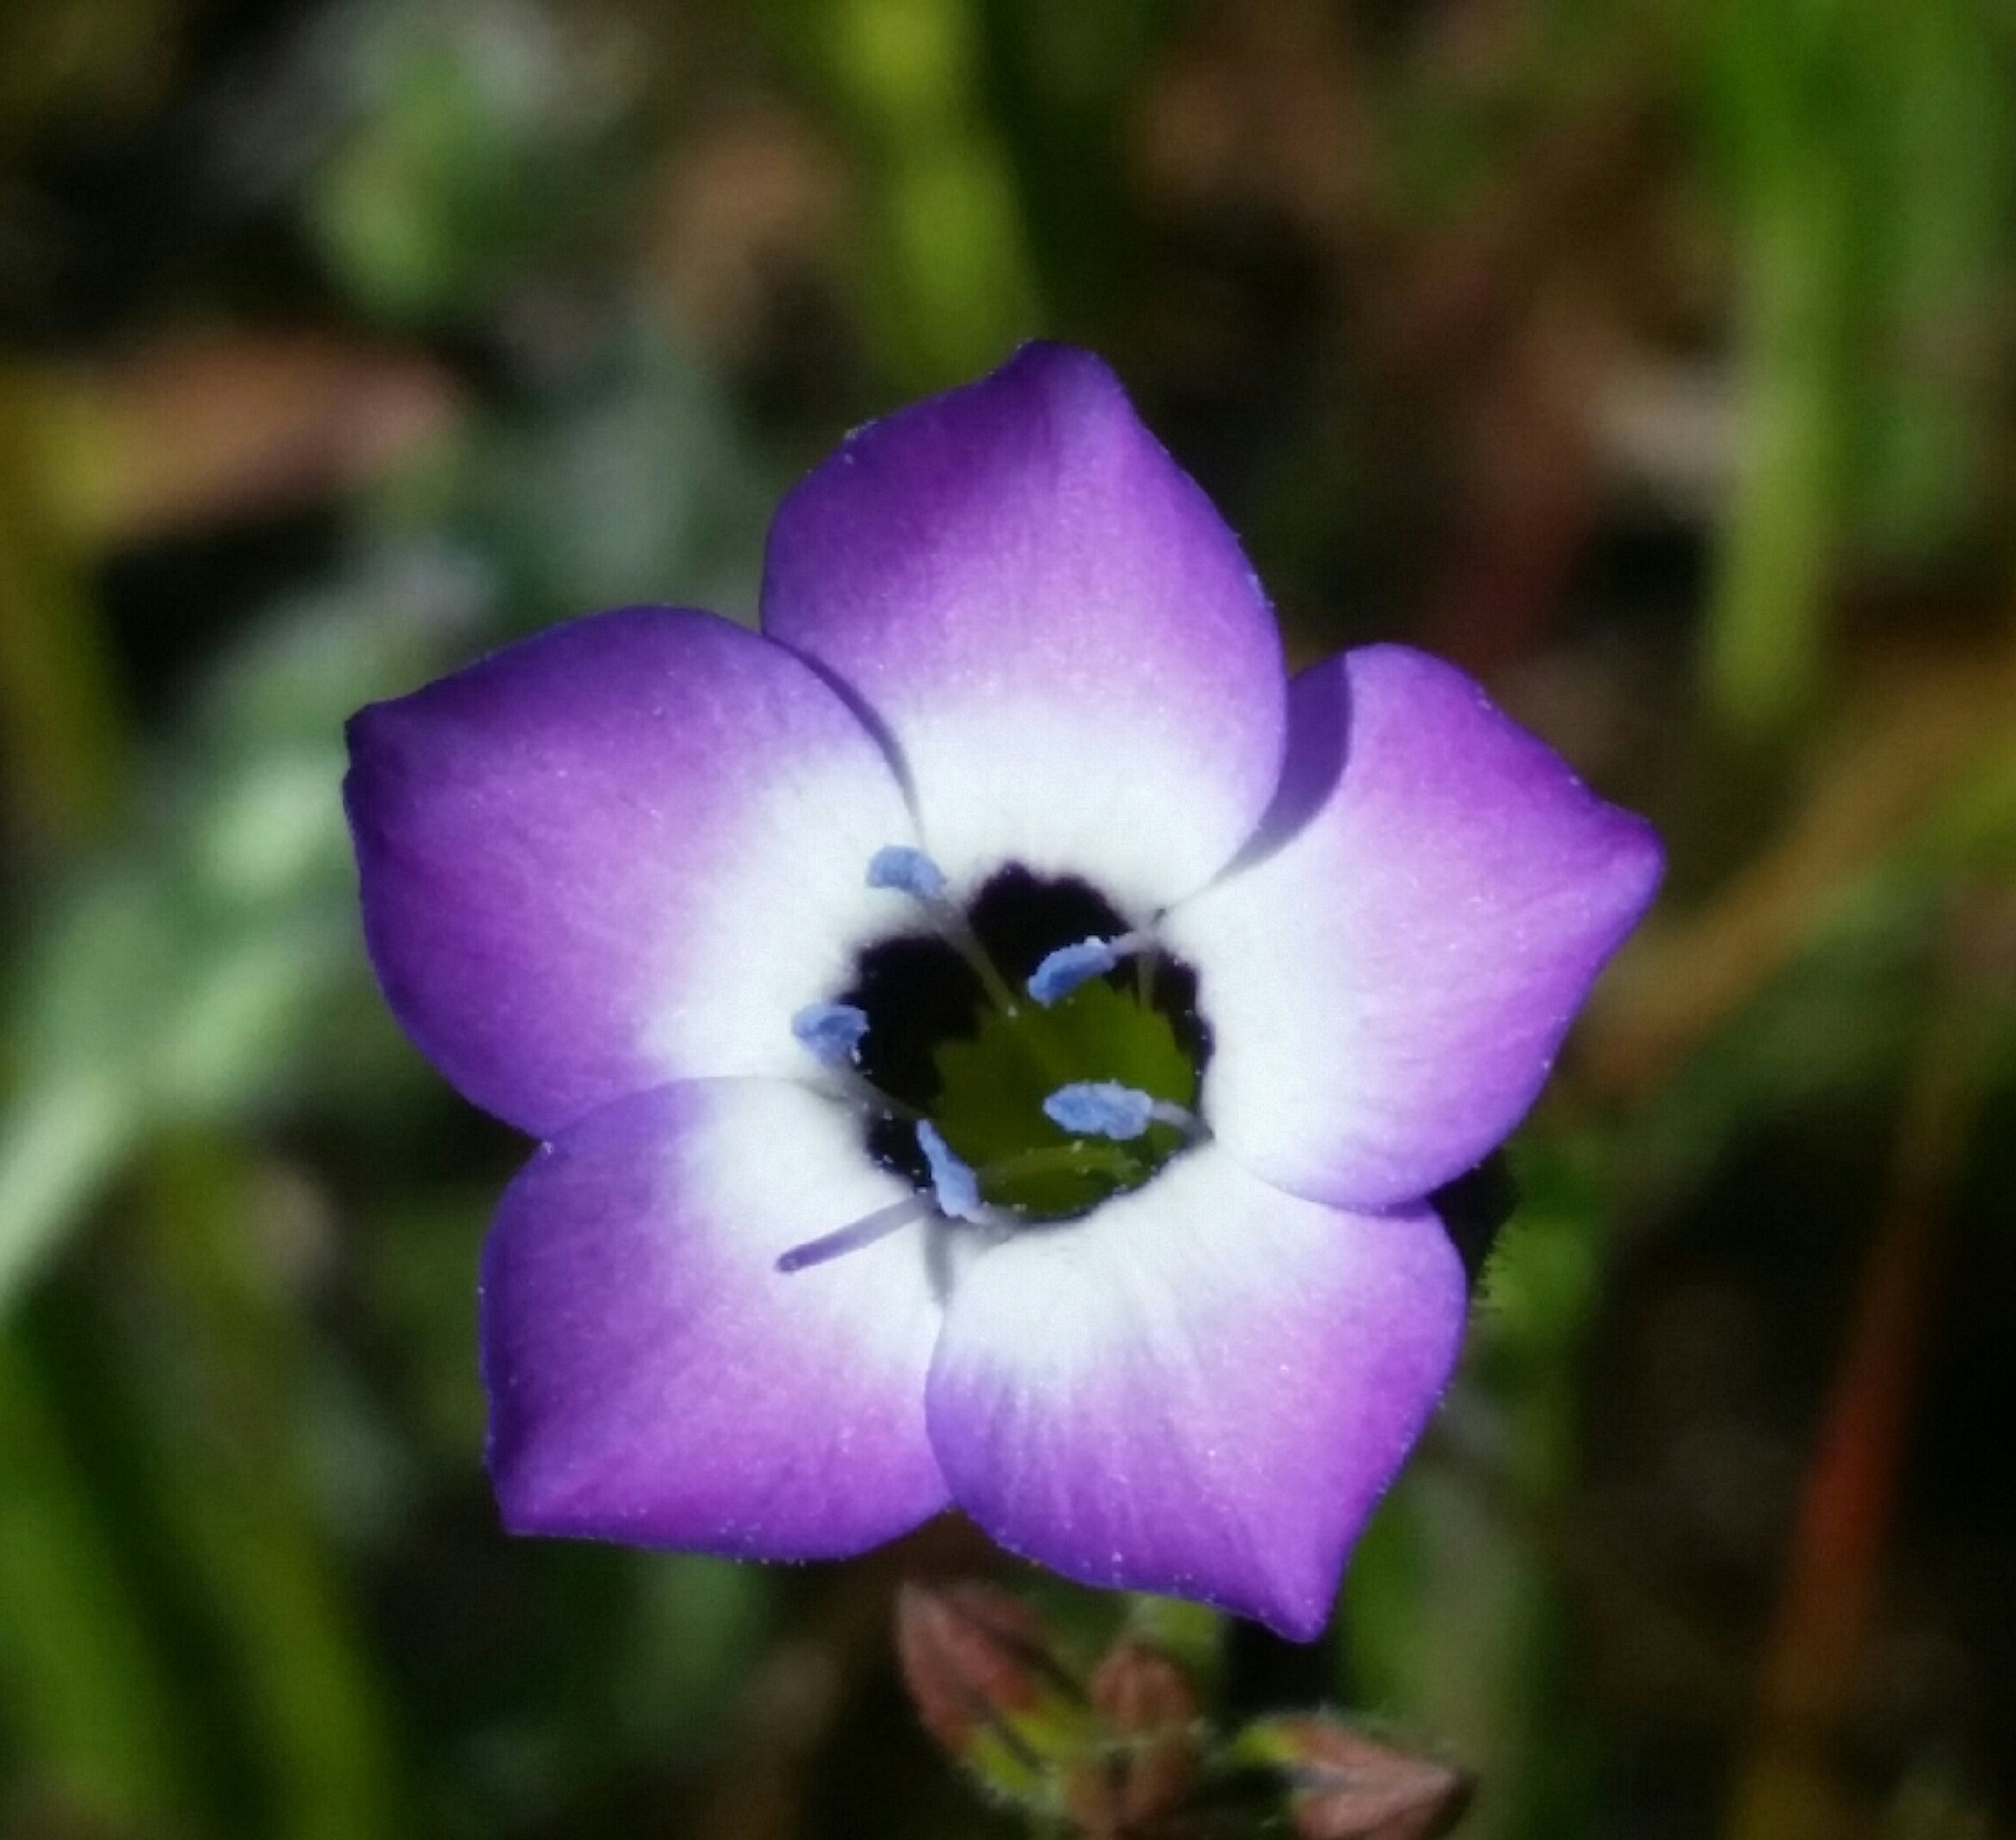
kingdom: Plantae
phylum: Tracheophyta
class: Magnoliopsida
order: Ericales
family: Polemoniaceae
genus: Gilia
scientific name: Gilia tricolor
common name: Bird's-eyes
